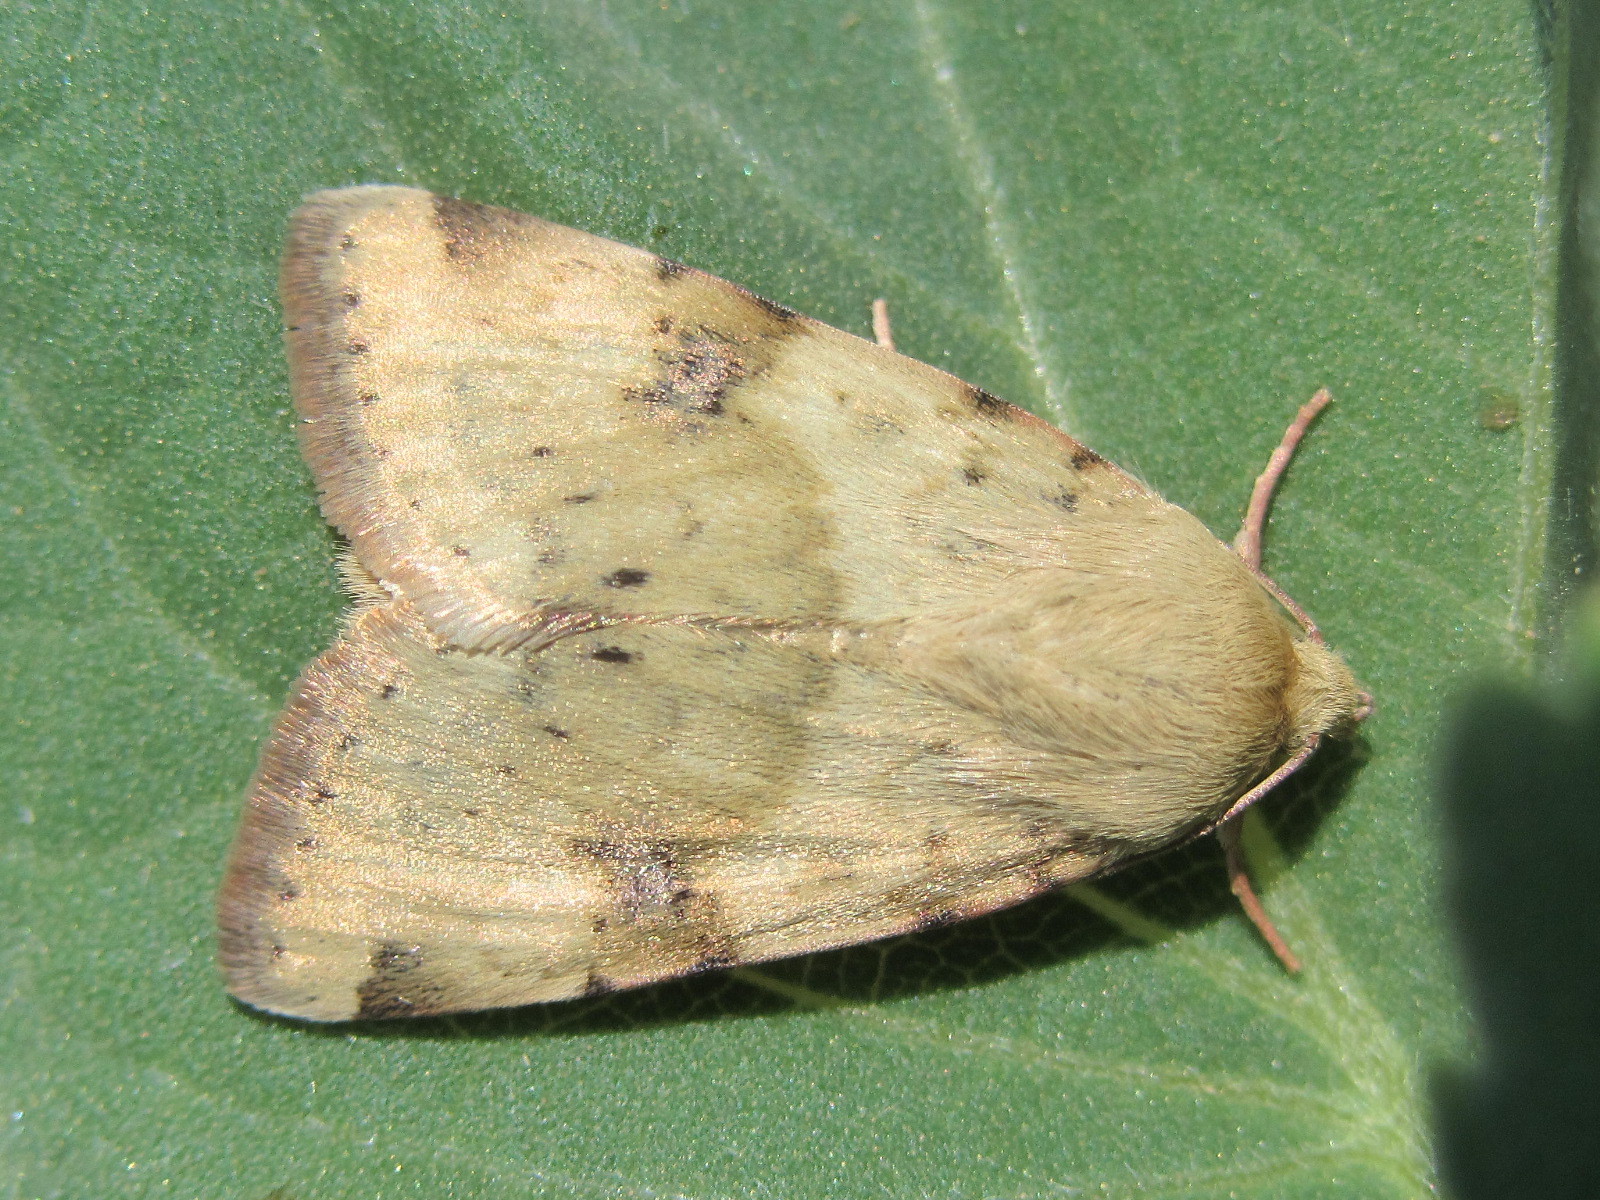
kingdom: Animalia
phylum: Arthropoda
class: Insecta
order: Lepidoptera
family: Noctuidae
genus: Heliothis
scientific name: Heliothis viriplaca
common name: Marbled clover
